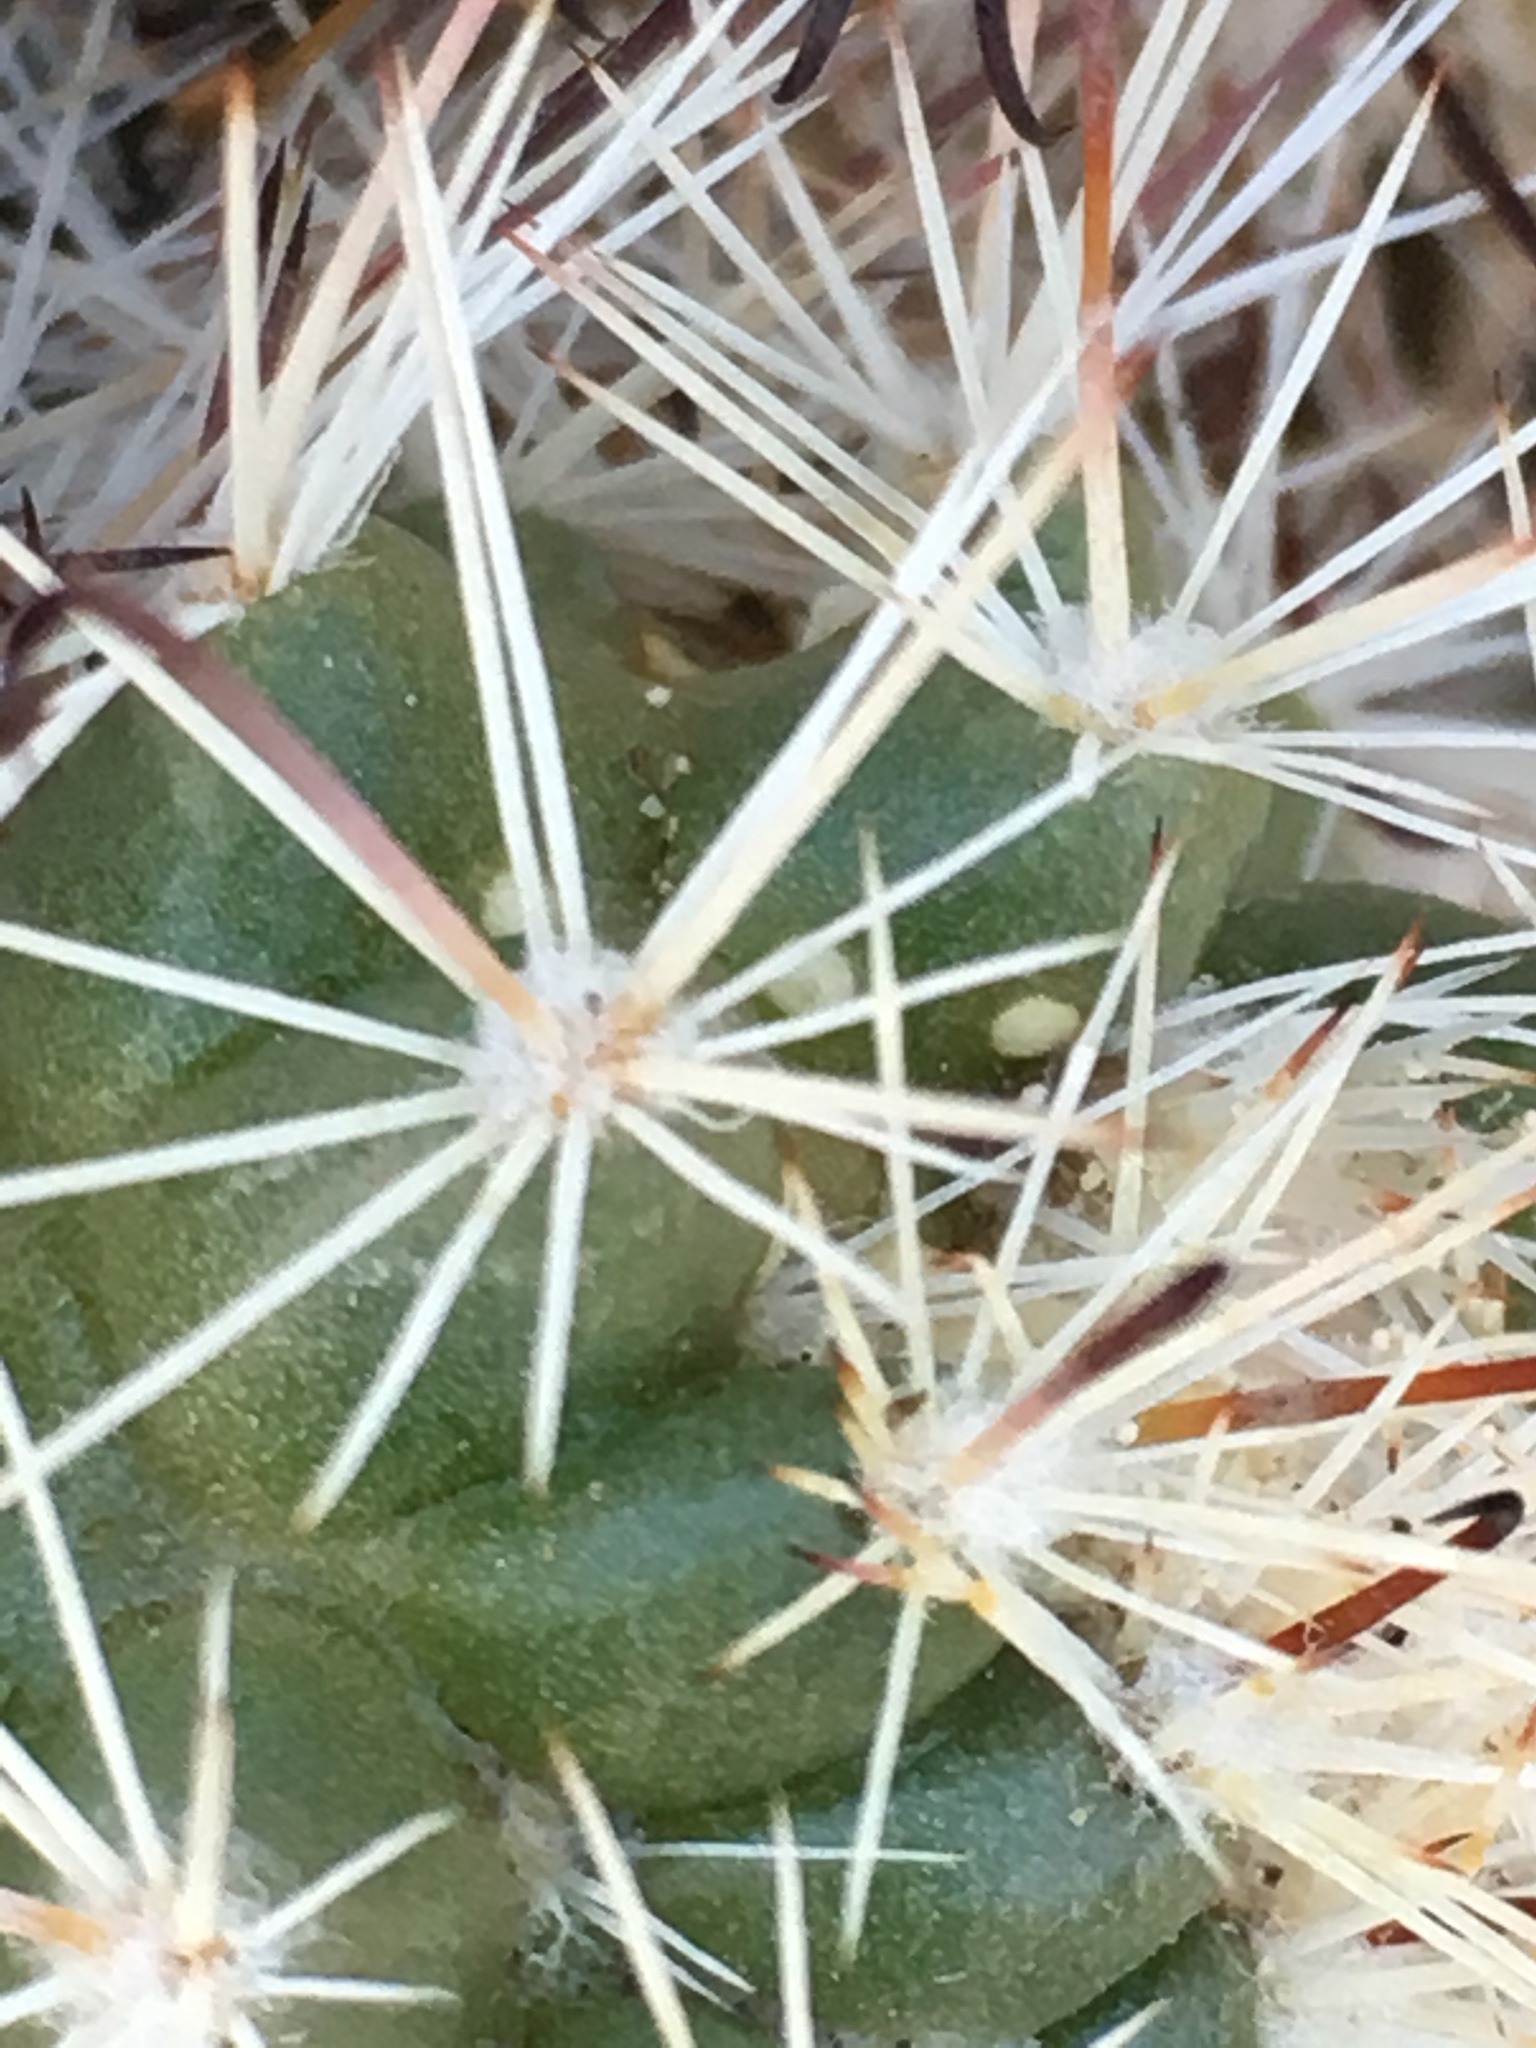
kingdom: Plantae
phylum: Tracheophyta
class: Magnoliopsida
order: Caryophyllales
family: Cactaceae
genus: Cochemiea
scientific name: Cochemiea dioica
